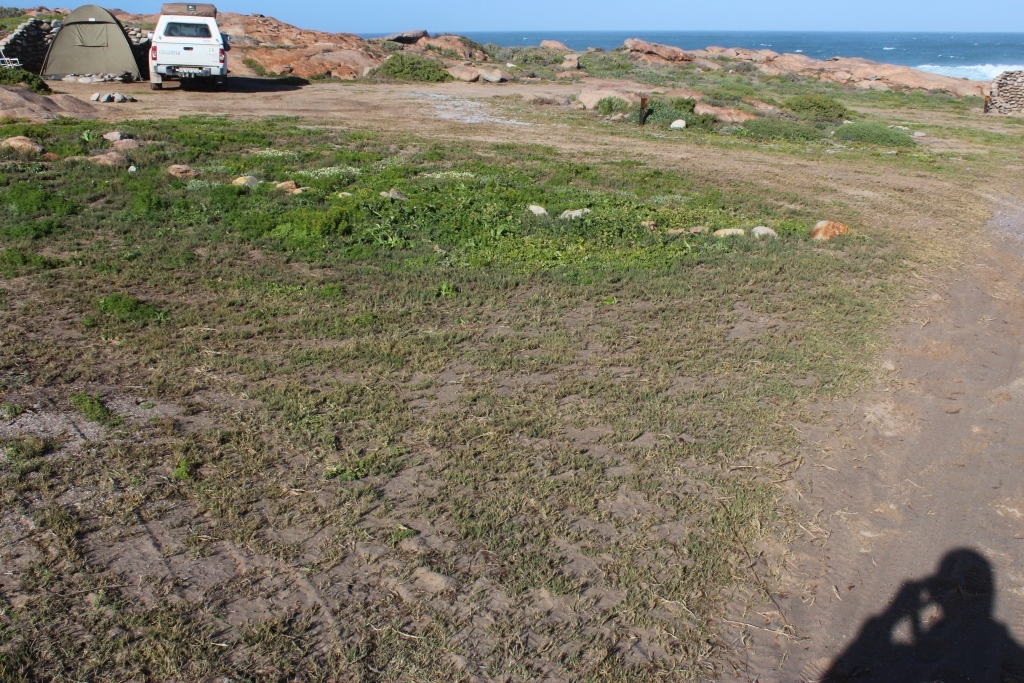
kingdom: Plantae
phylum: Tracheophyta
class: Liliopsida
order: Poales
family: Poaceae
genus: Cynodon
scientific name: Cynodon dactylon
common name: Bermuda grass
